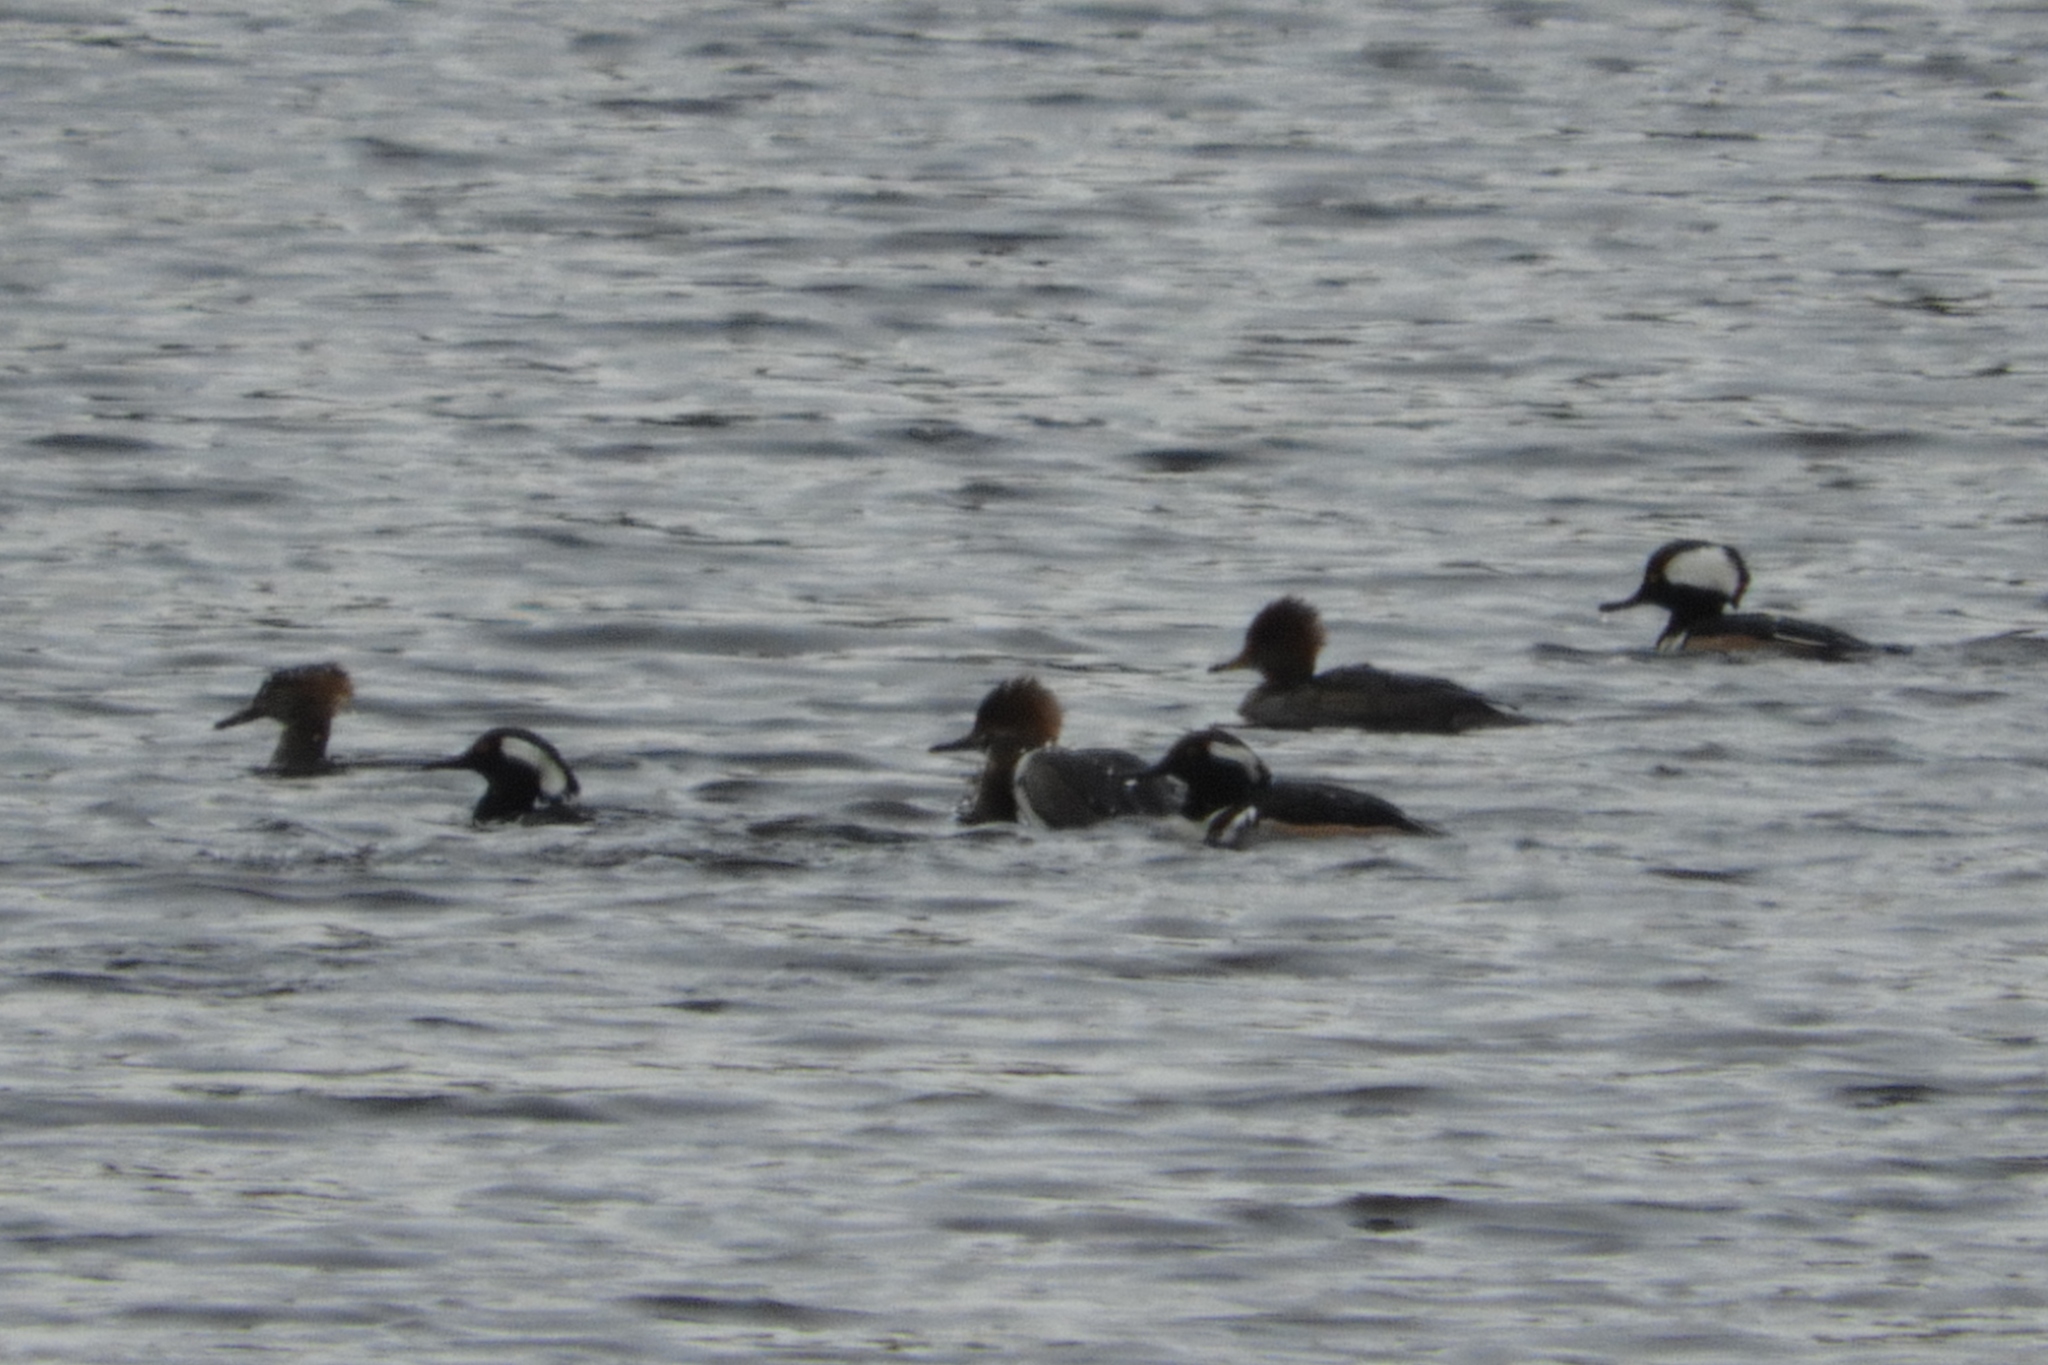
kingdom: Animalia
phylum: Chordata
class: Aves
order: Anseriformes
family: Anatidae
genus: Lophodytes
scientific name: Lophodytes cucullatus
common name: Hooded merganser
